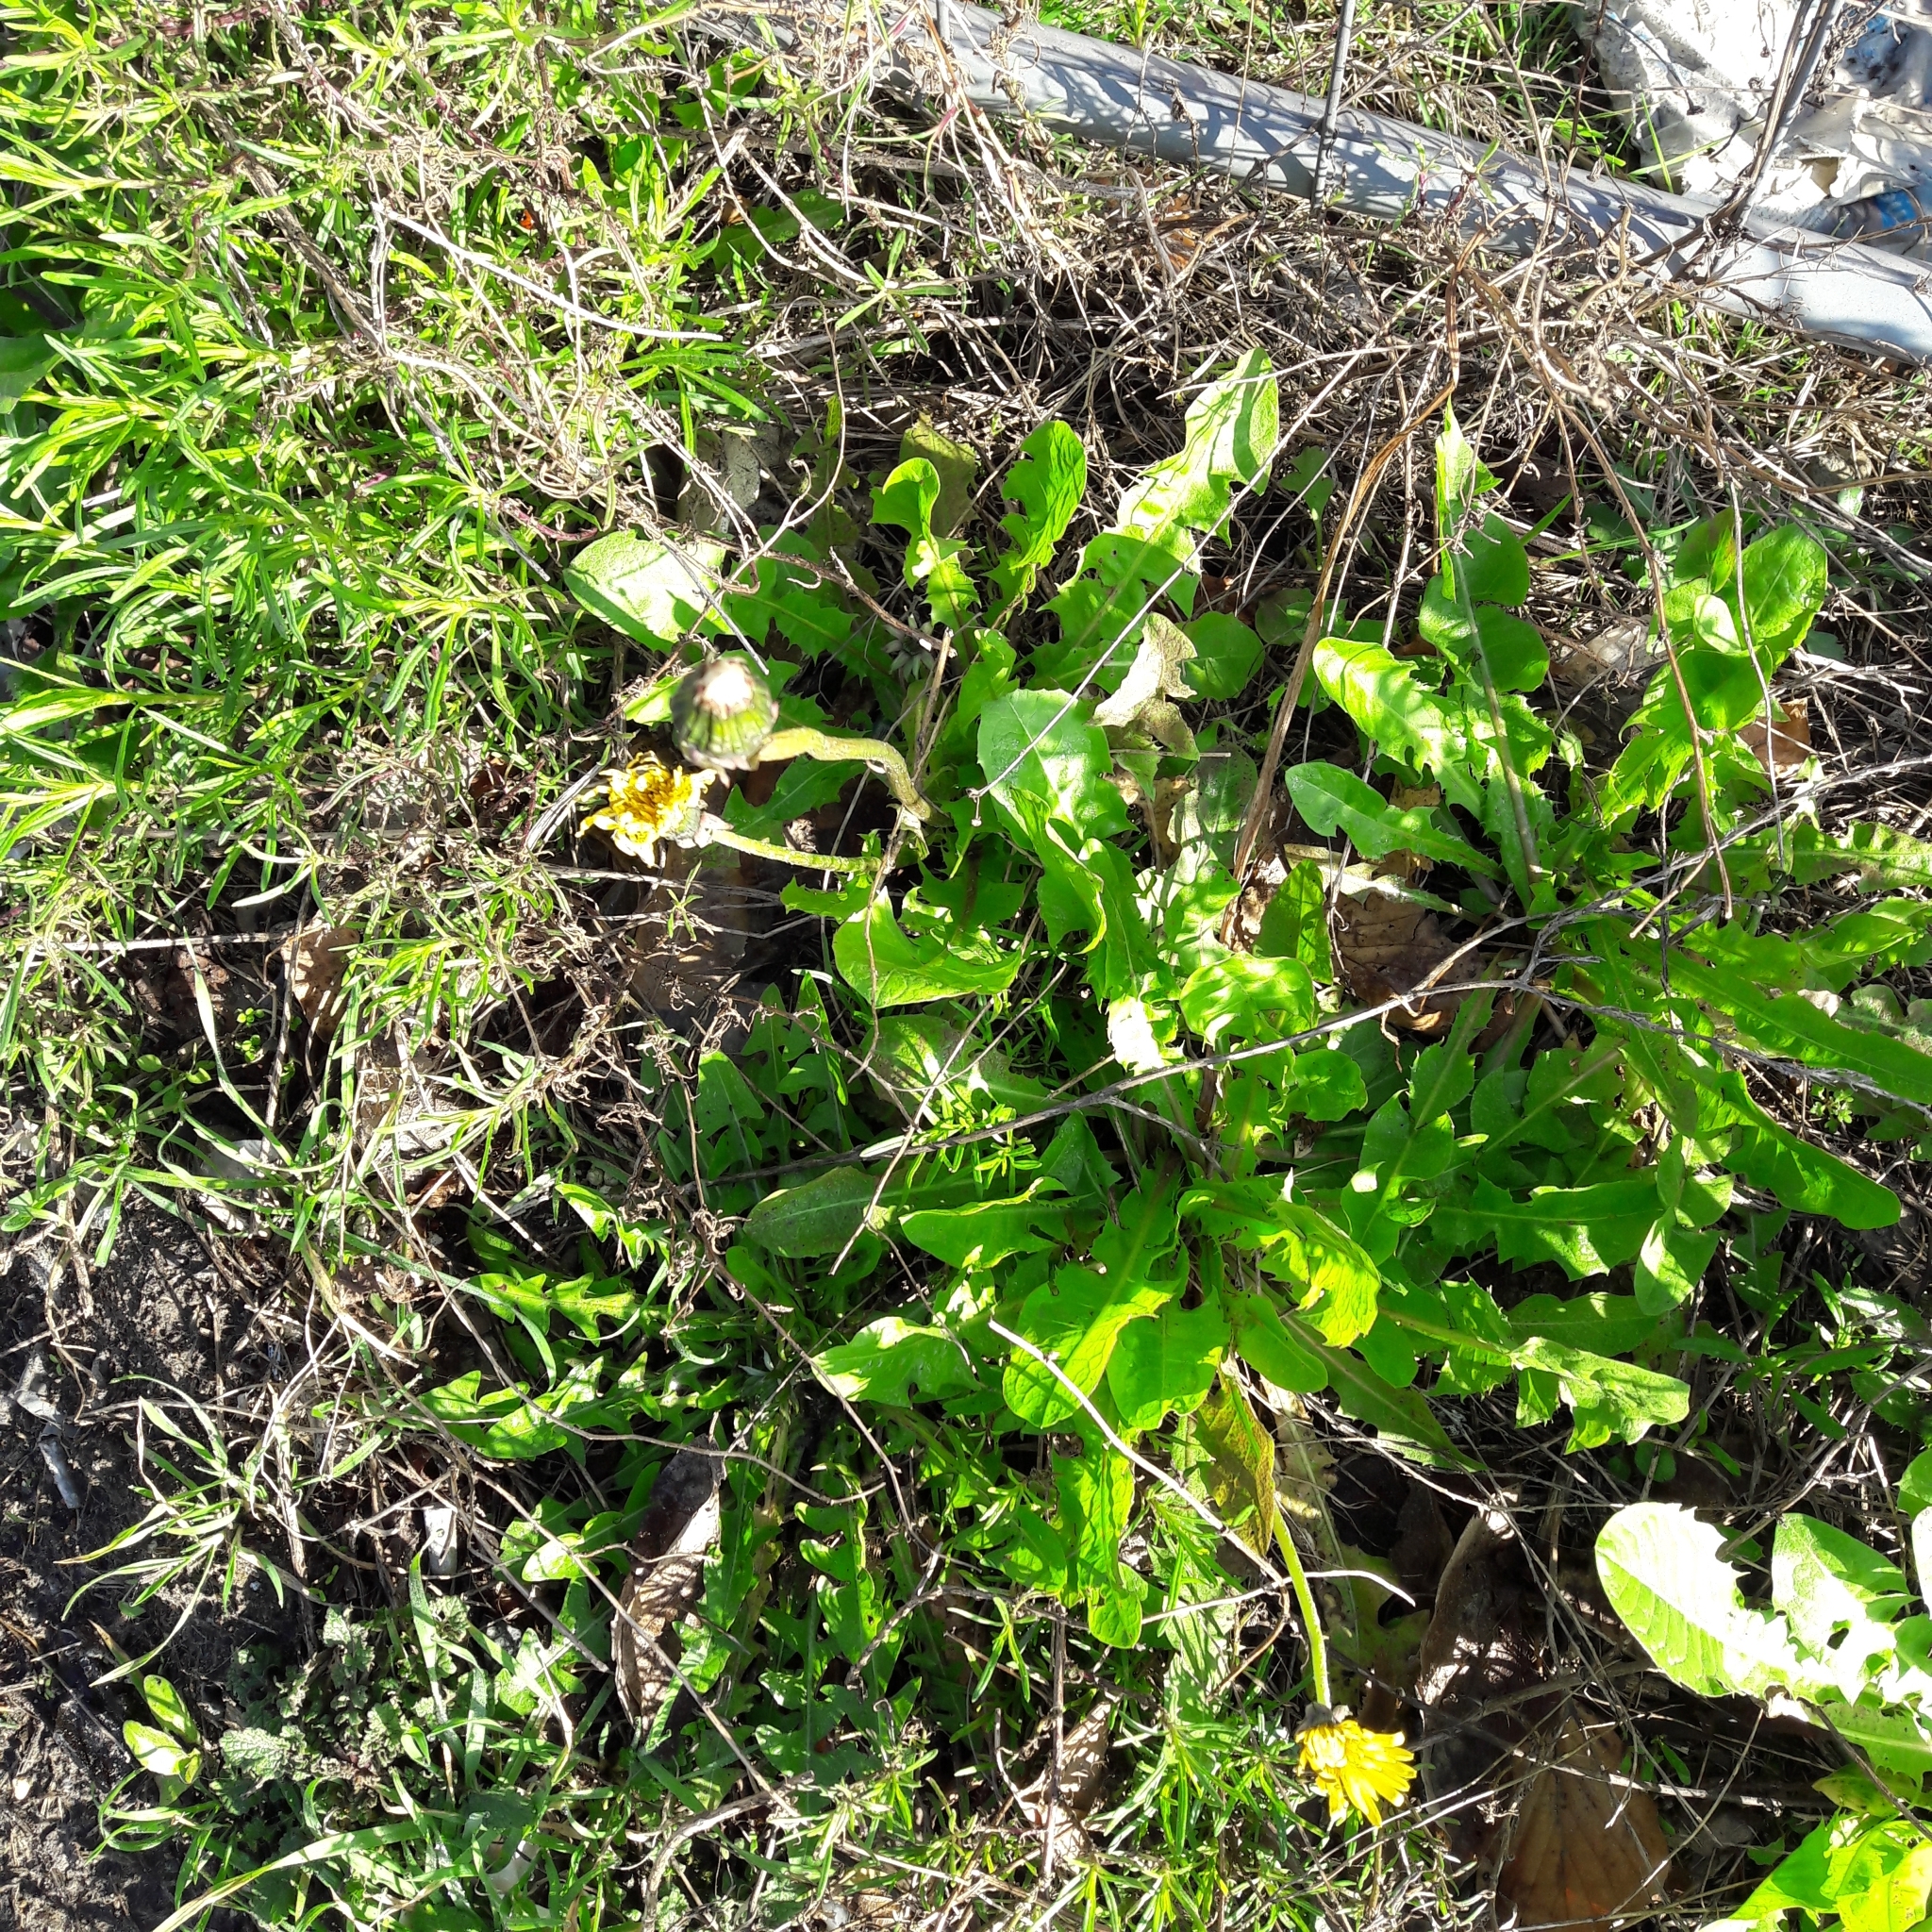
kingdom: Plantae
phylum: Tracheophyta
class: Magnoliopsida
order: Asterales
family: Asteraceae
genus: Taraxacum
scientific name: Taraxacum officinale
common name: Common dandelion
